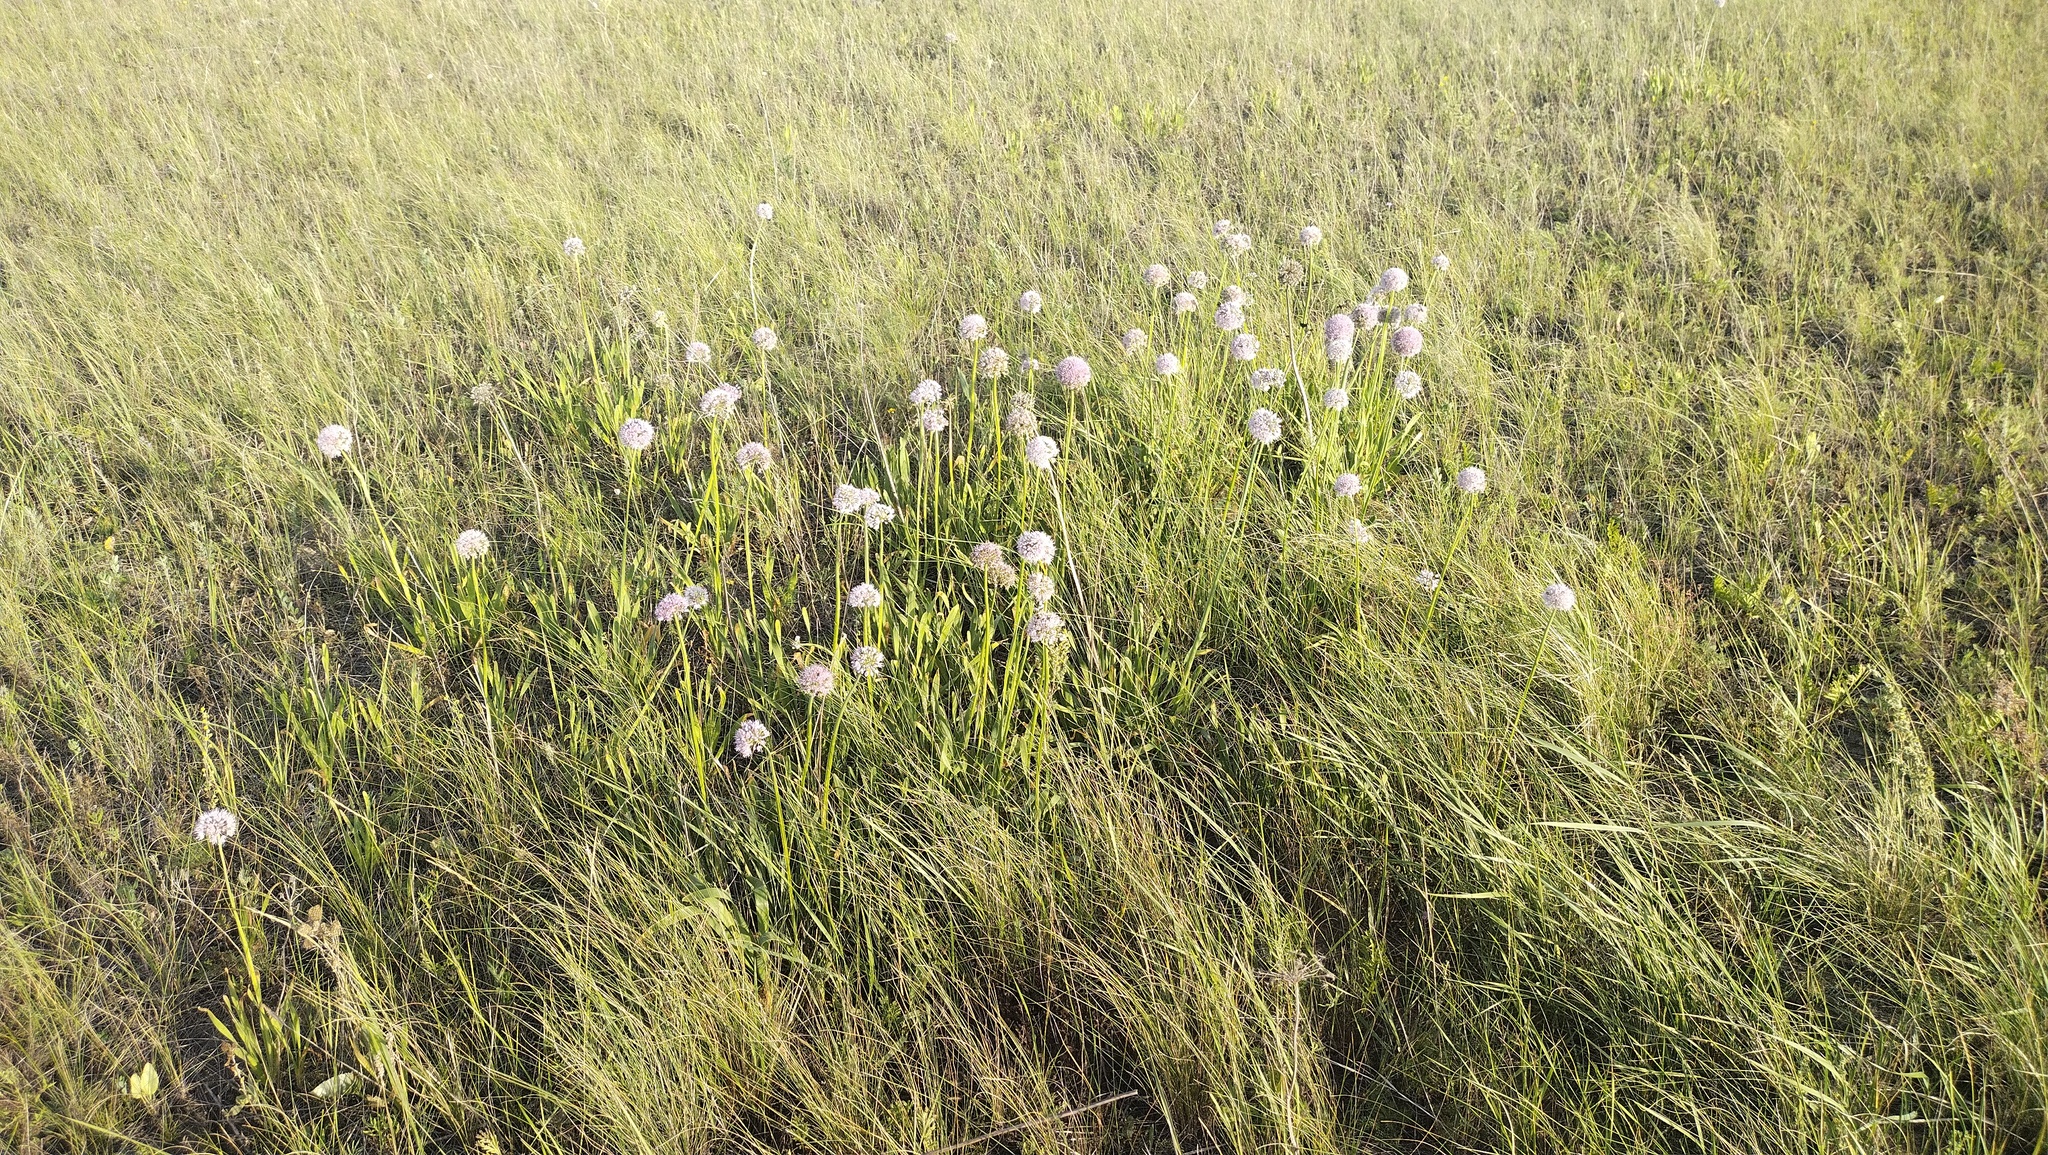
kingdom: Plantae
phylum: Tracheophyta
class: Liliopsida
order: Asparagales
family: Amaryllidaceae
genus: Allium
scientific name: Allium nutans
